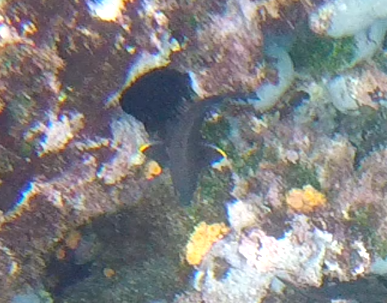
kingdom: Animalia
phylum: Chordata
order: Perciformes
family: Pomacentridae
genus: Stegastes
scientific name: Stegastes beebei
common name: Galapagos ringtail damselfish
